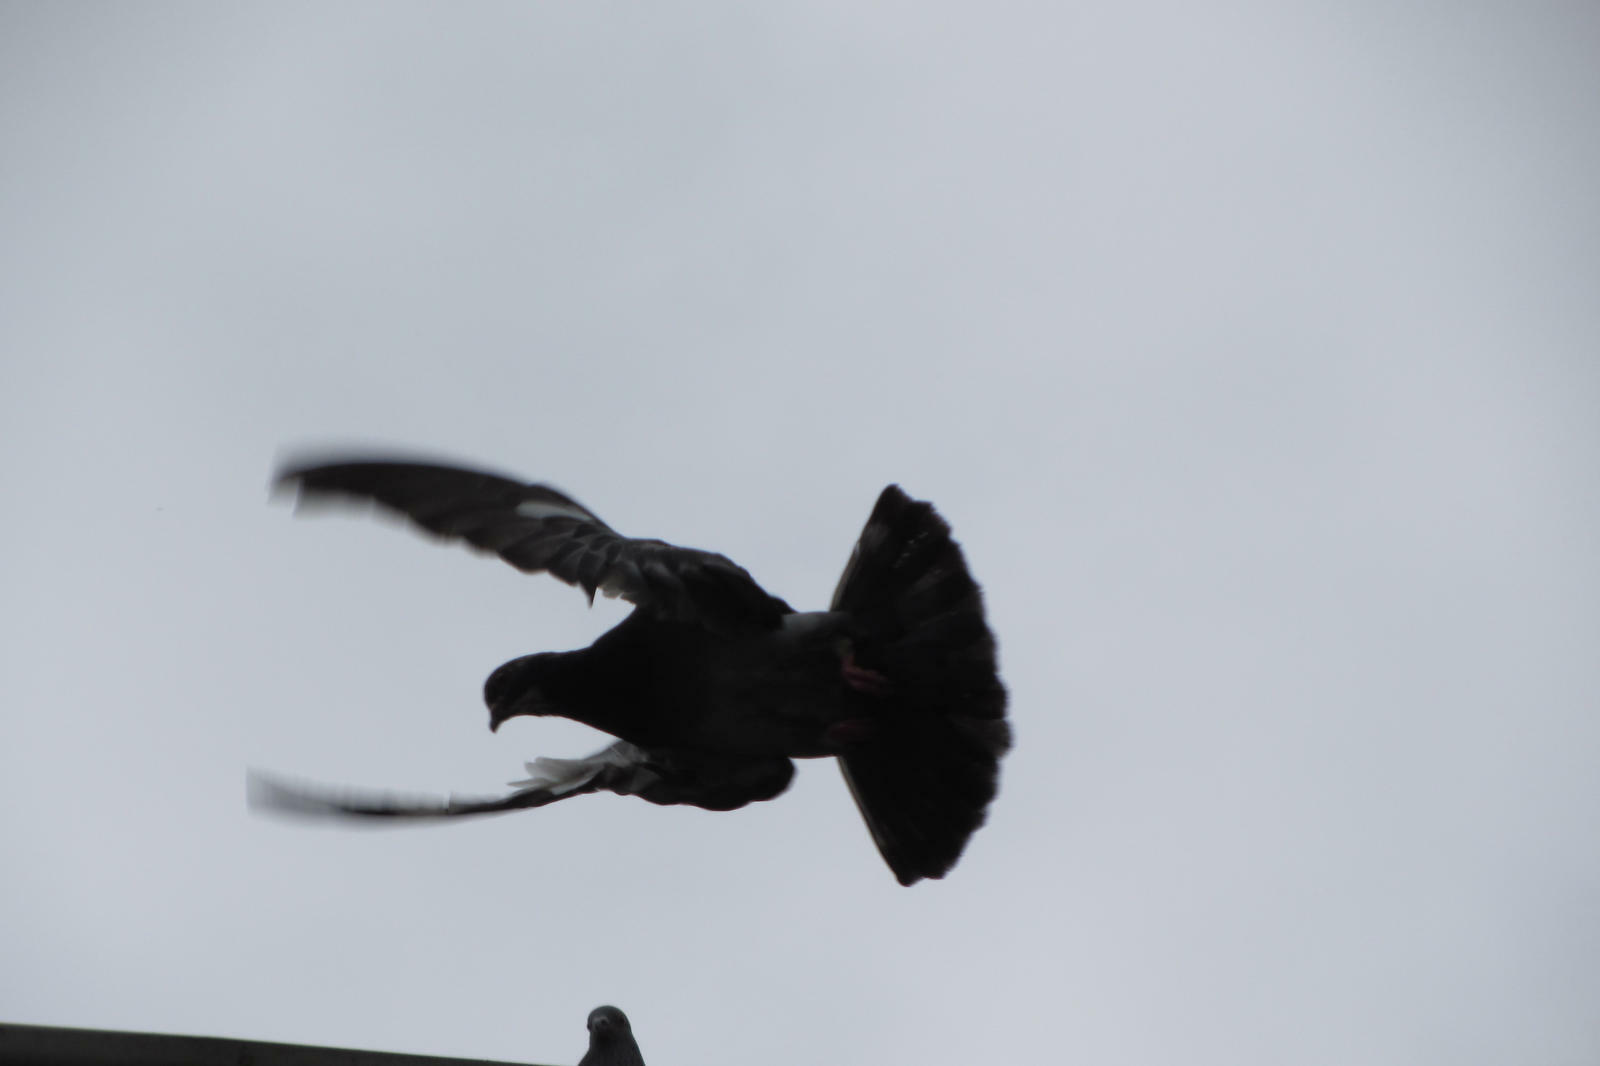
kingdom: Animalia
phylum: Chordata
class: Aves
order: Columbiformes
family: Columbidae
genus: Columba
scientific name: Columba livia
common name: Rock pigeon
